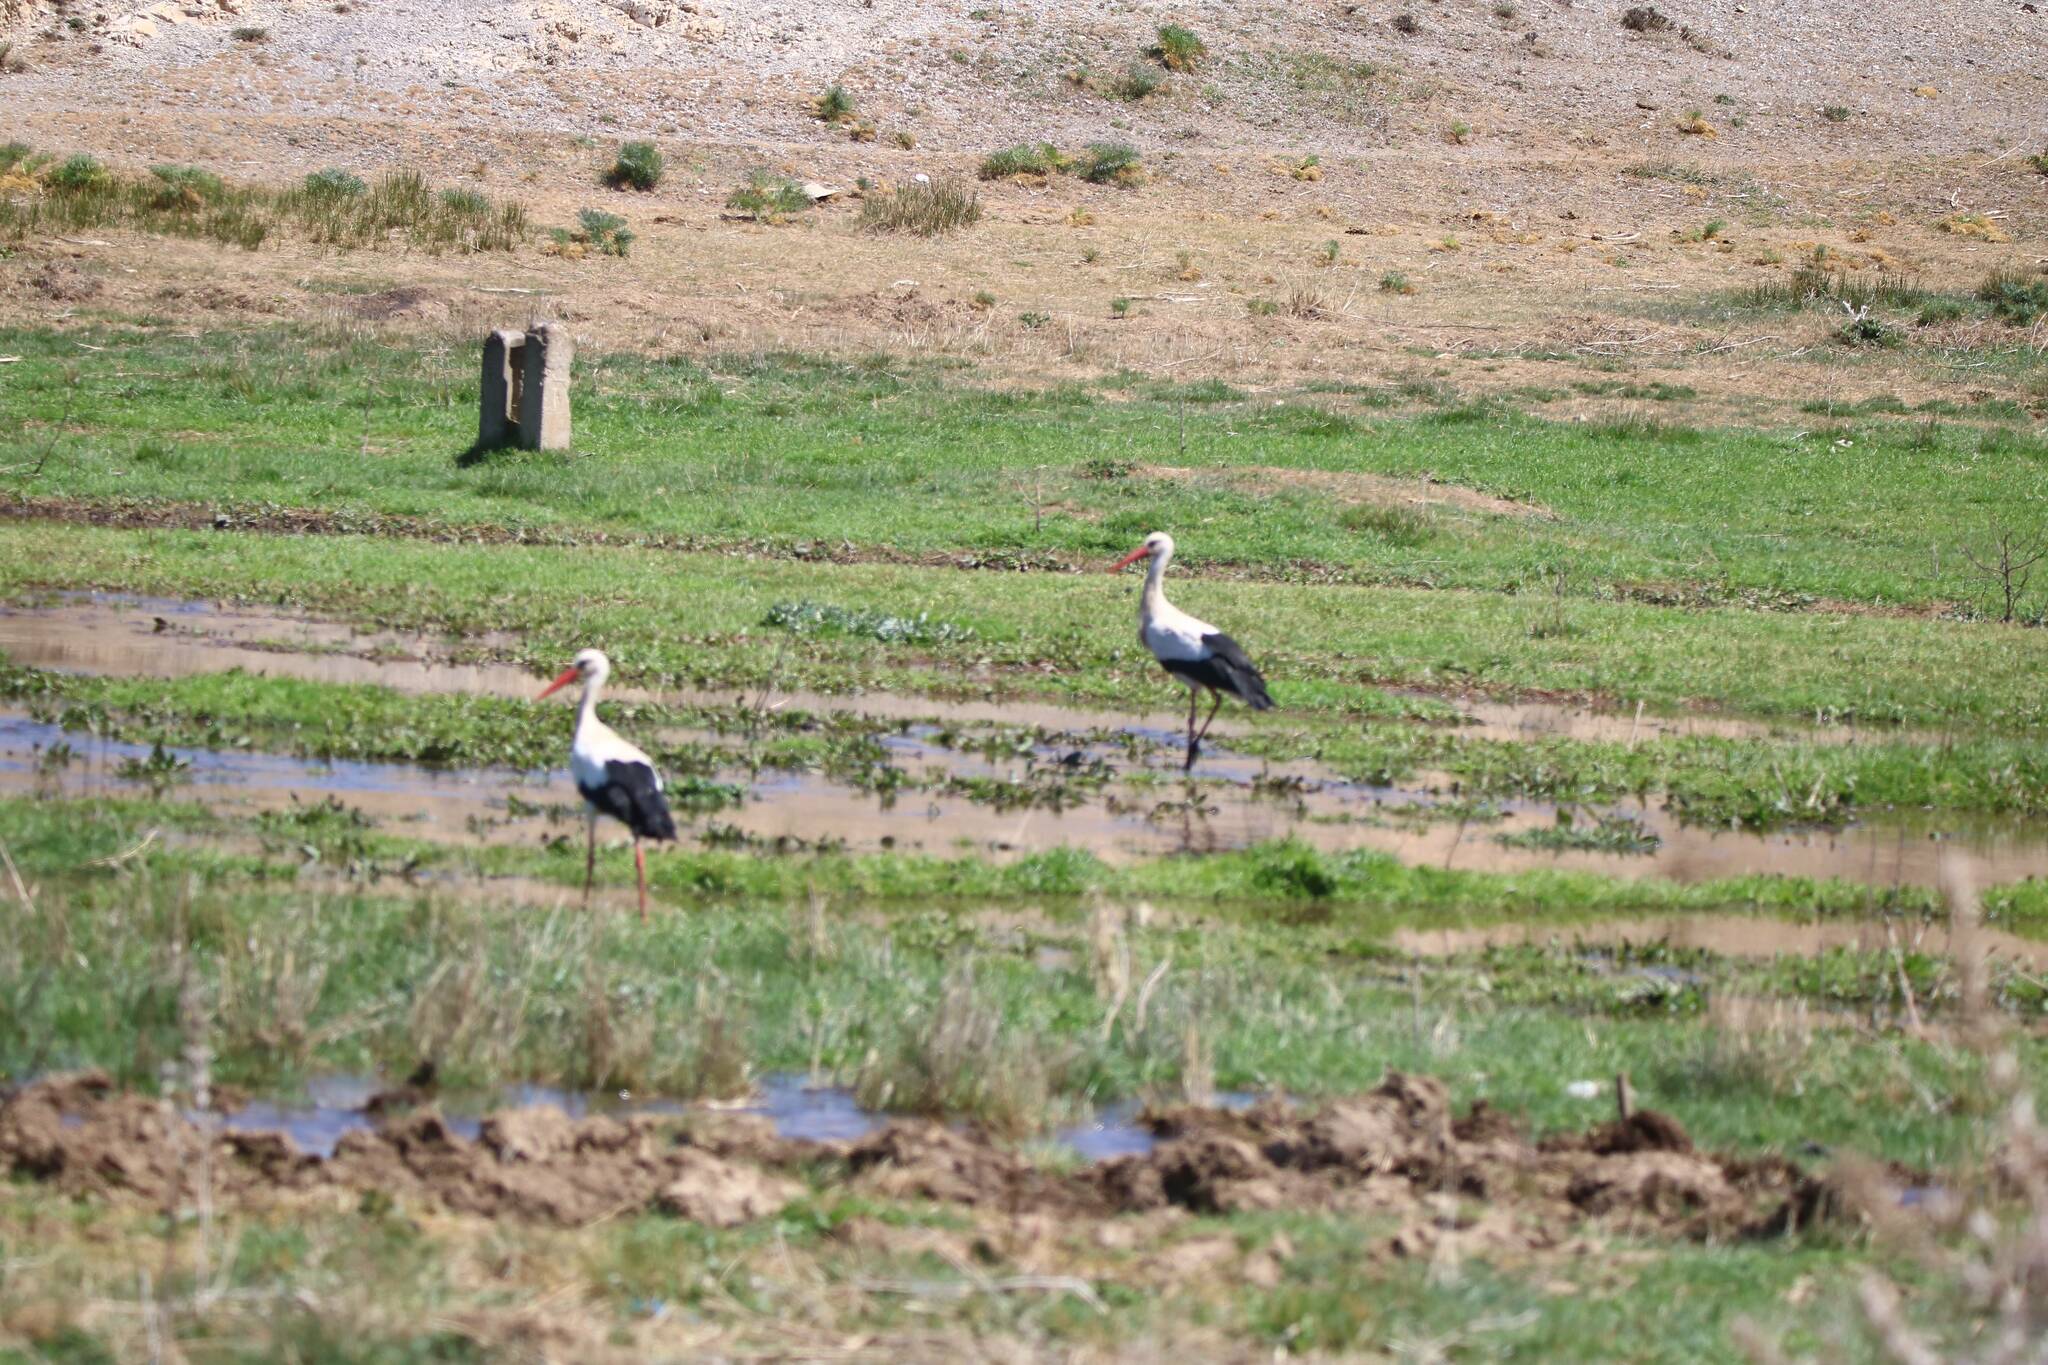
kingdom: Animalia
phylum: Chordata
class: Aves
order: Ciconiiformes
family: Ciconiidae
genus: Ciconia
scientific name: Ciconia ciconia
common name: White stork
